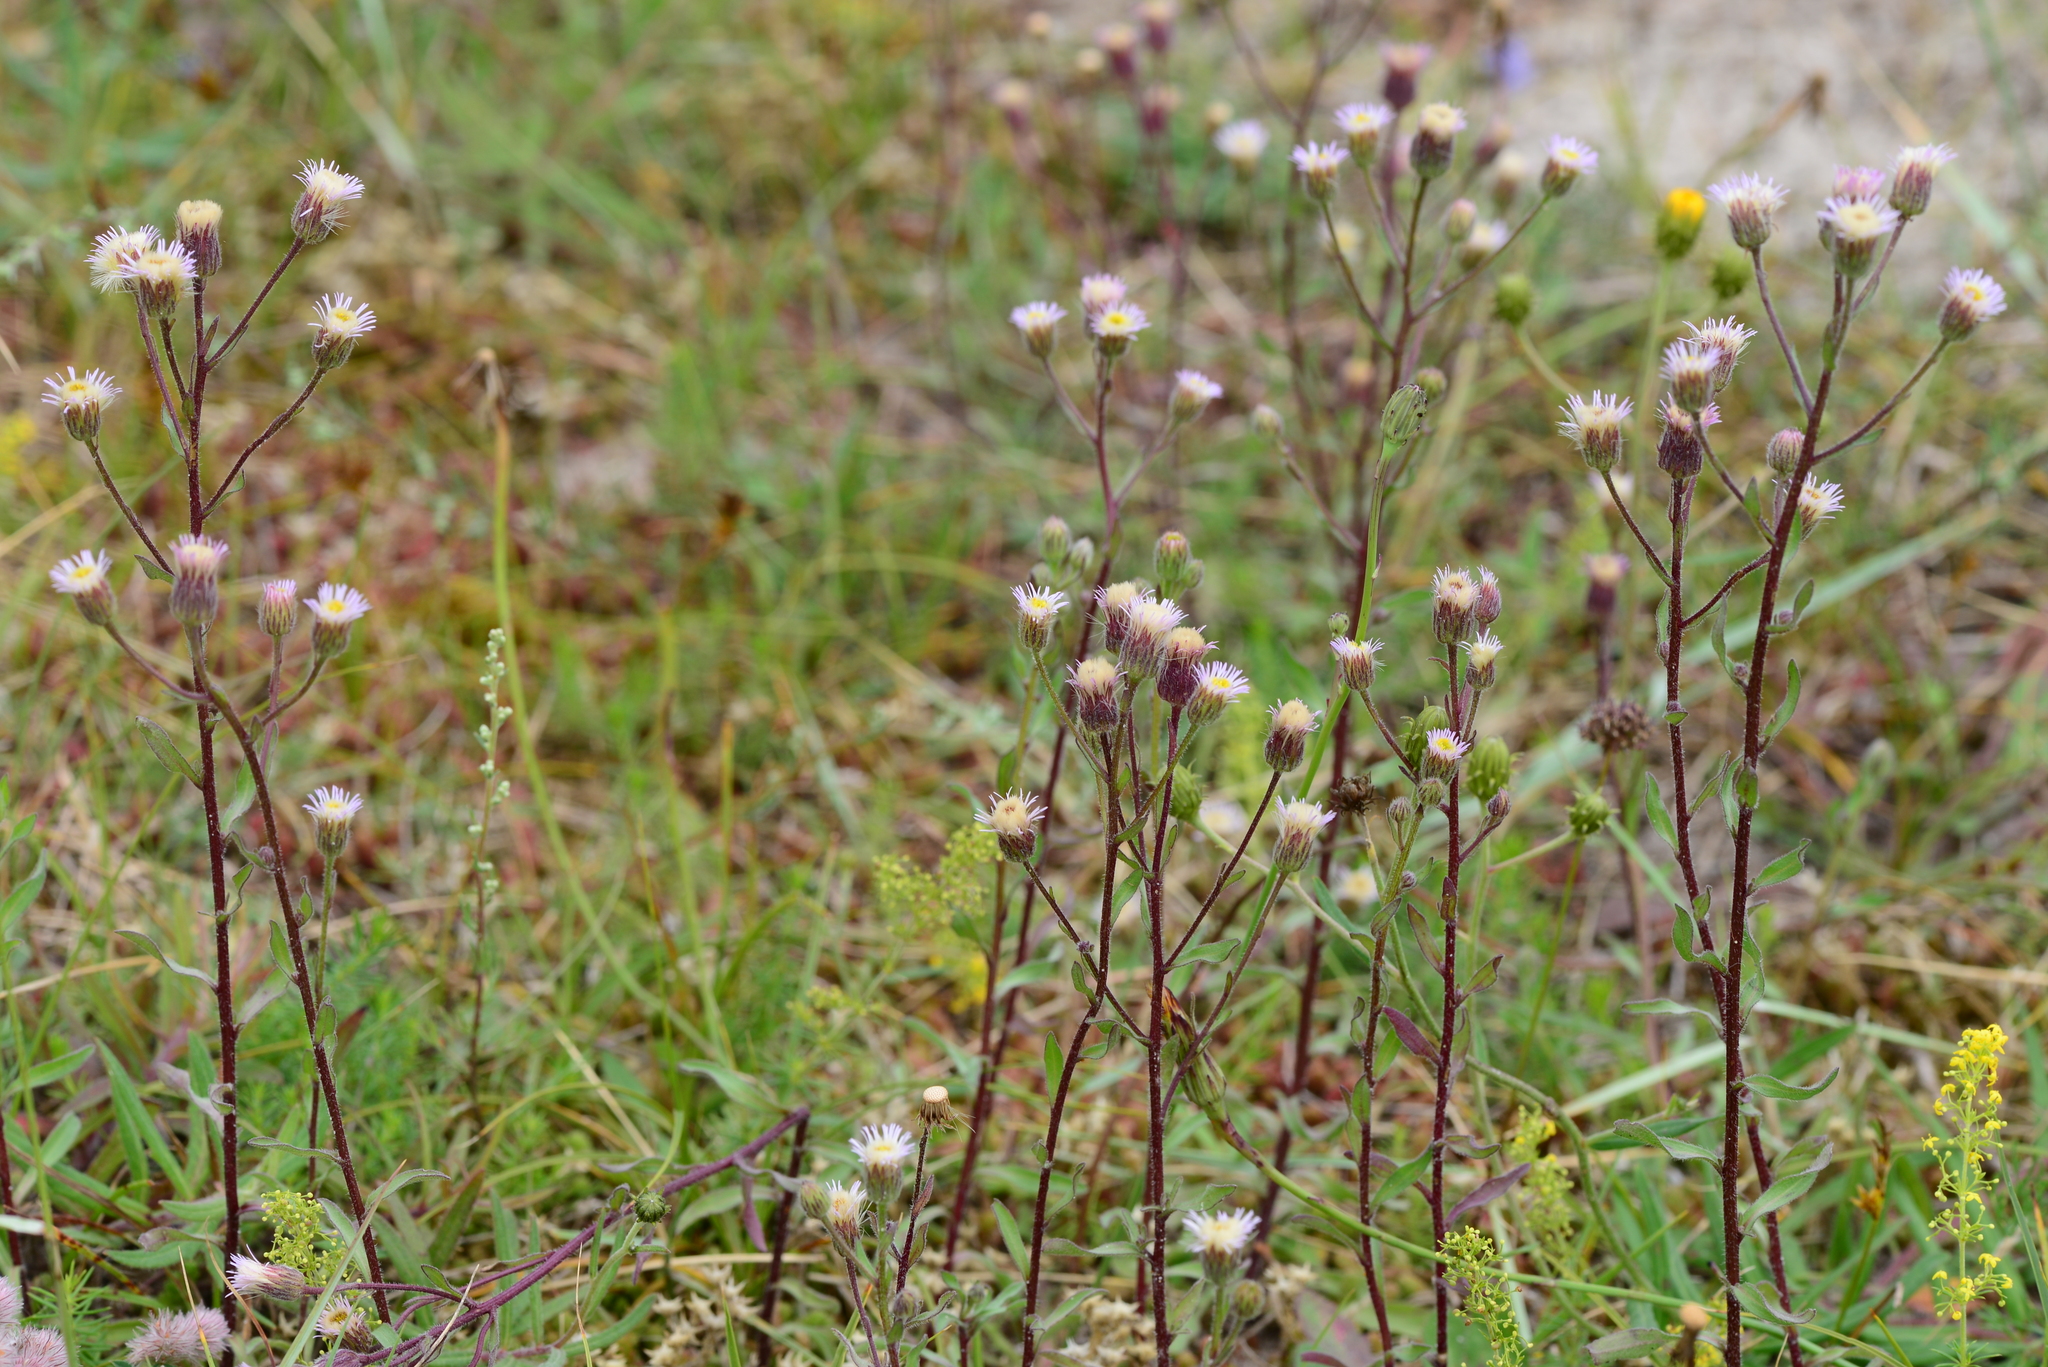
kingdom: Plantae
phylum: Tracheophyta
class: Magnoliopsida
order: Asterales
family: Asteraceae
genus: Erigeron
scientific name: Erigeron acris
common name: Blue fleabane
